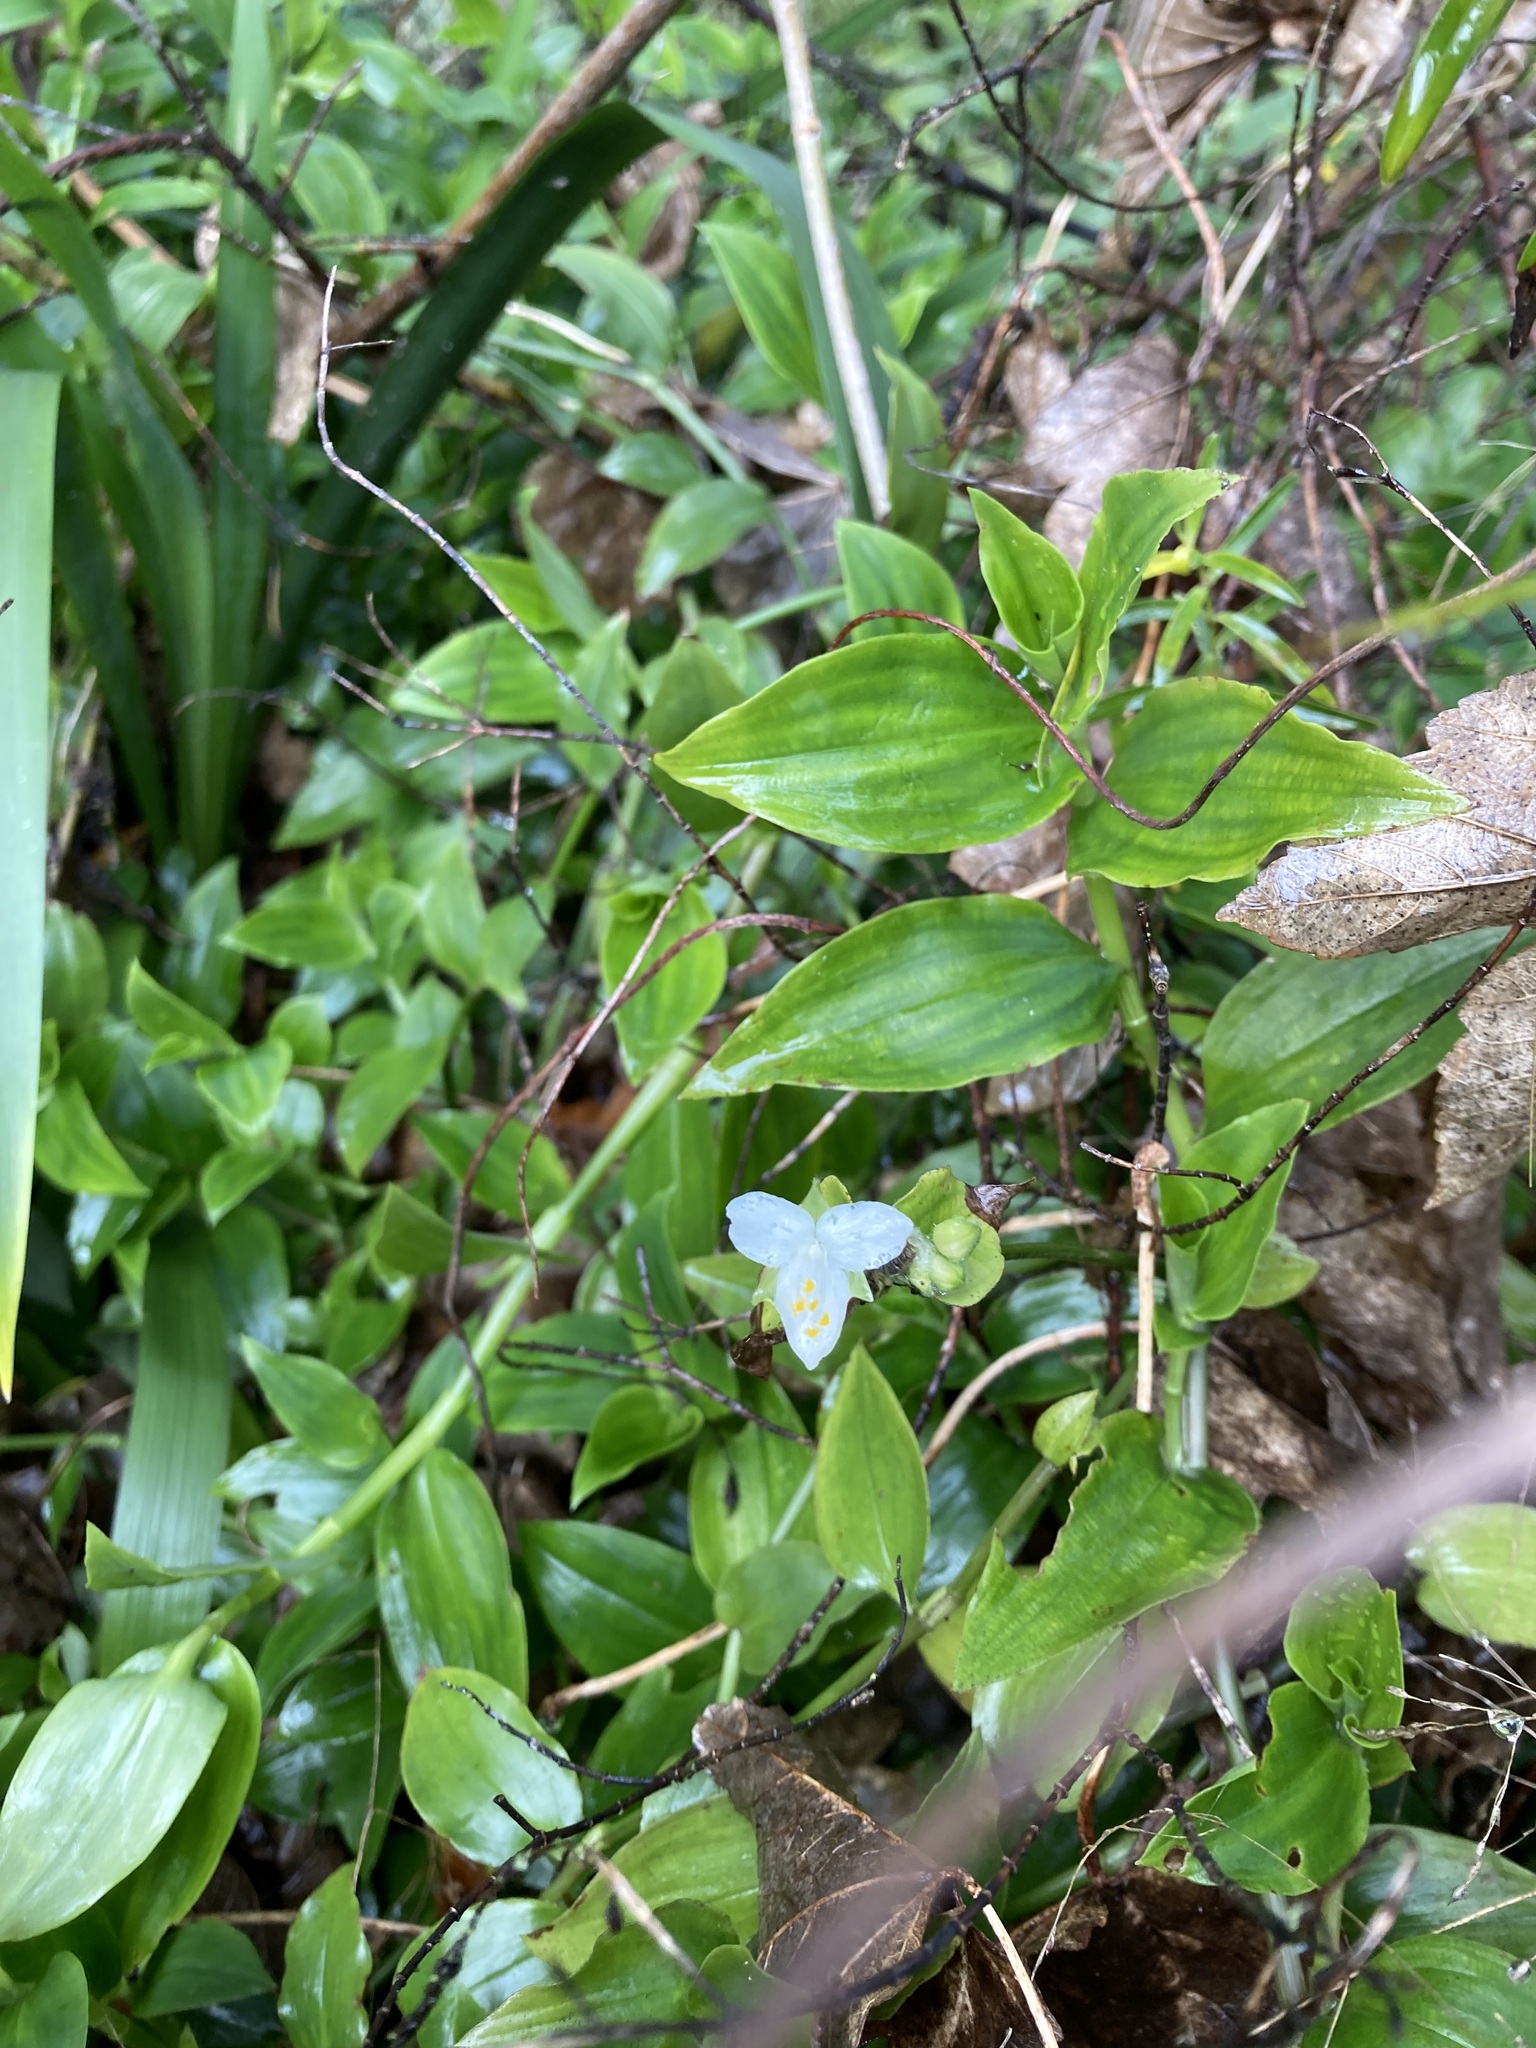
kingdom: Plantae
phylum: Tracheophyta
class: Liliopsida
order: Commelinales
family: Commelinaceae
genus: Tradescantia
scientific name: Tradescantia fluminensis
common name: Wandering-jew
